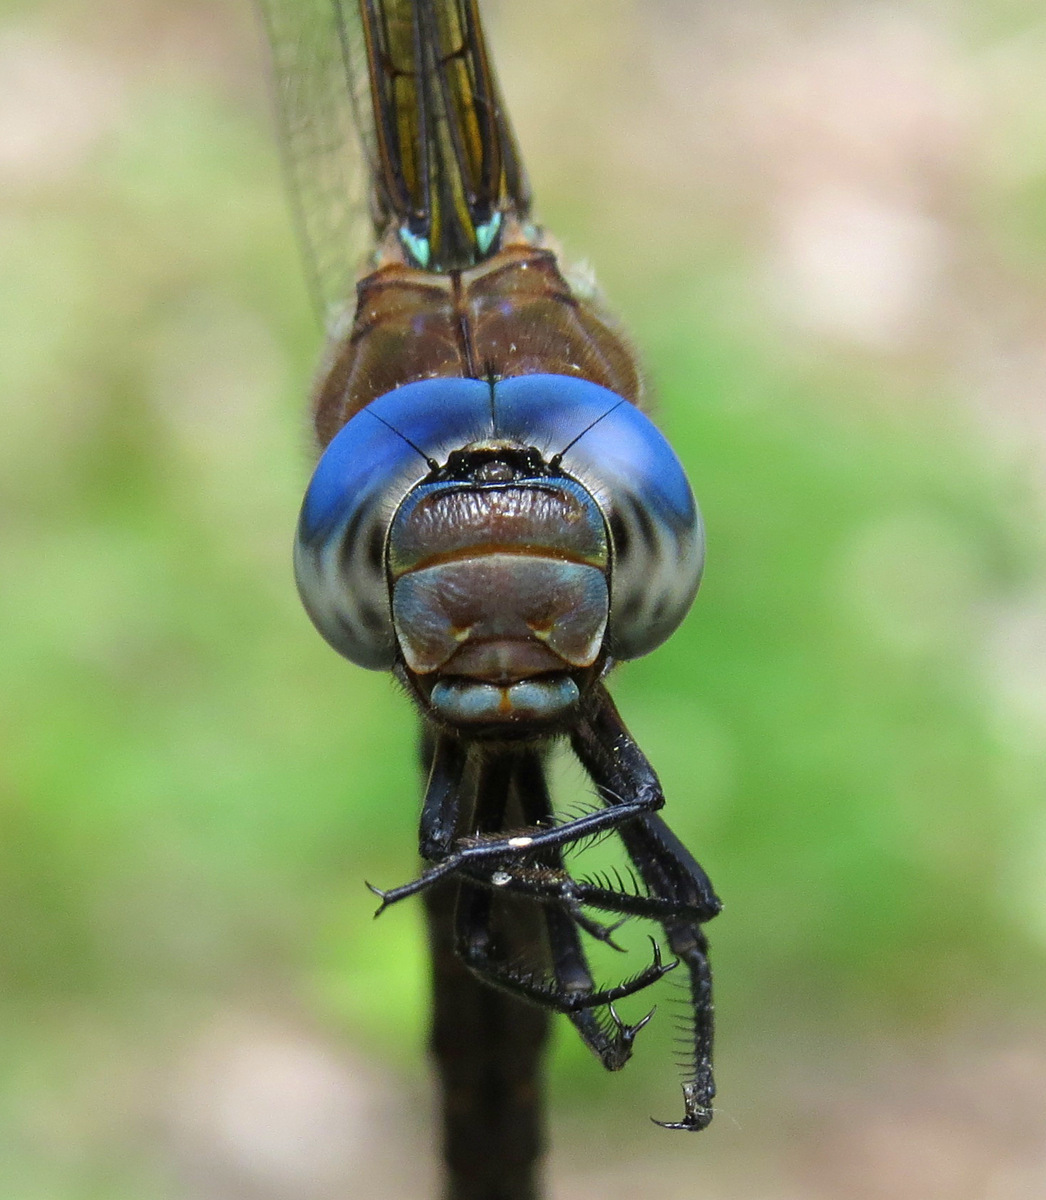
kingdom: Animalia
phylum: Arthropoda
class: Insecta
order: Odonata
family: Aeshnidae
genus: Rhionaeschna
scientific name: Rhionaeschna mutata
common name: Spatterdock darner
